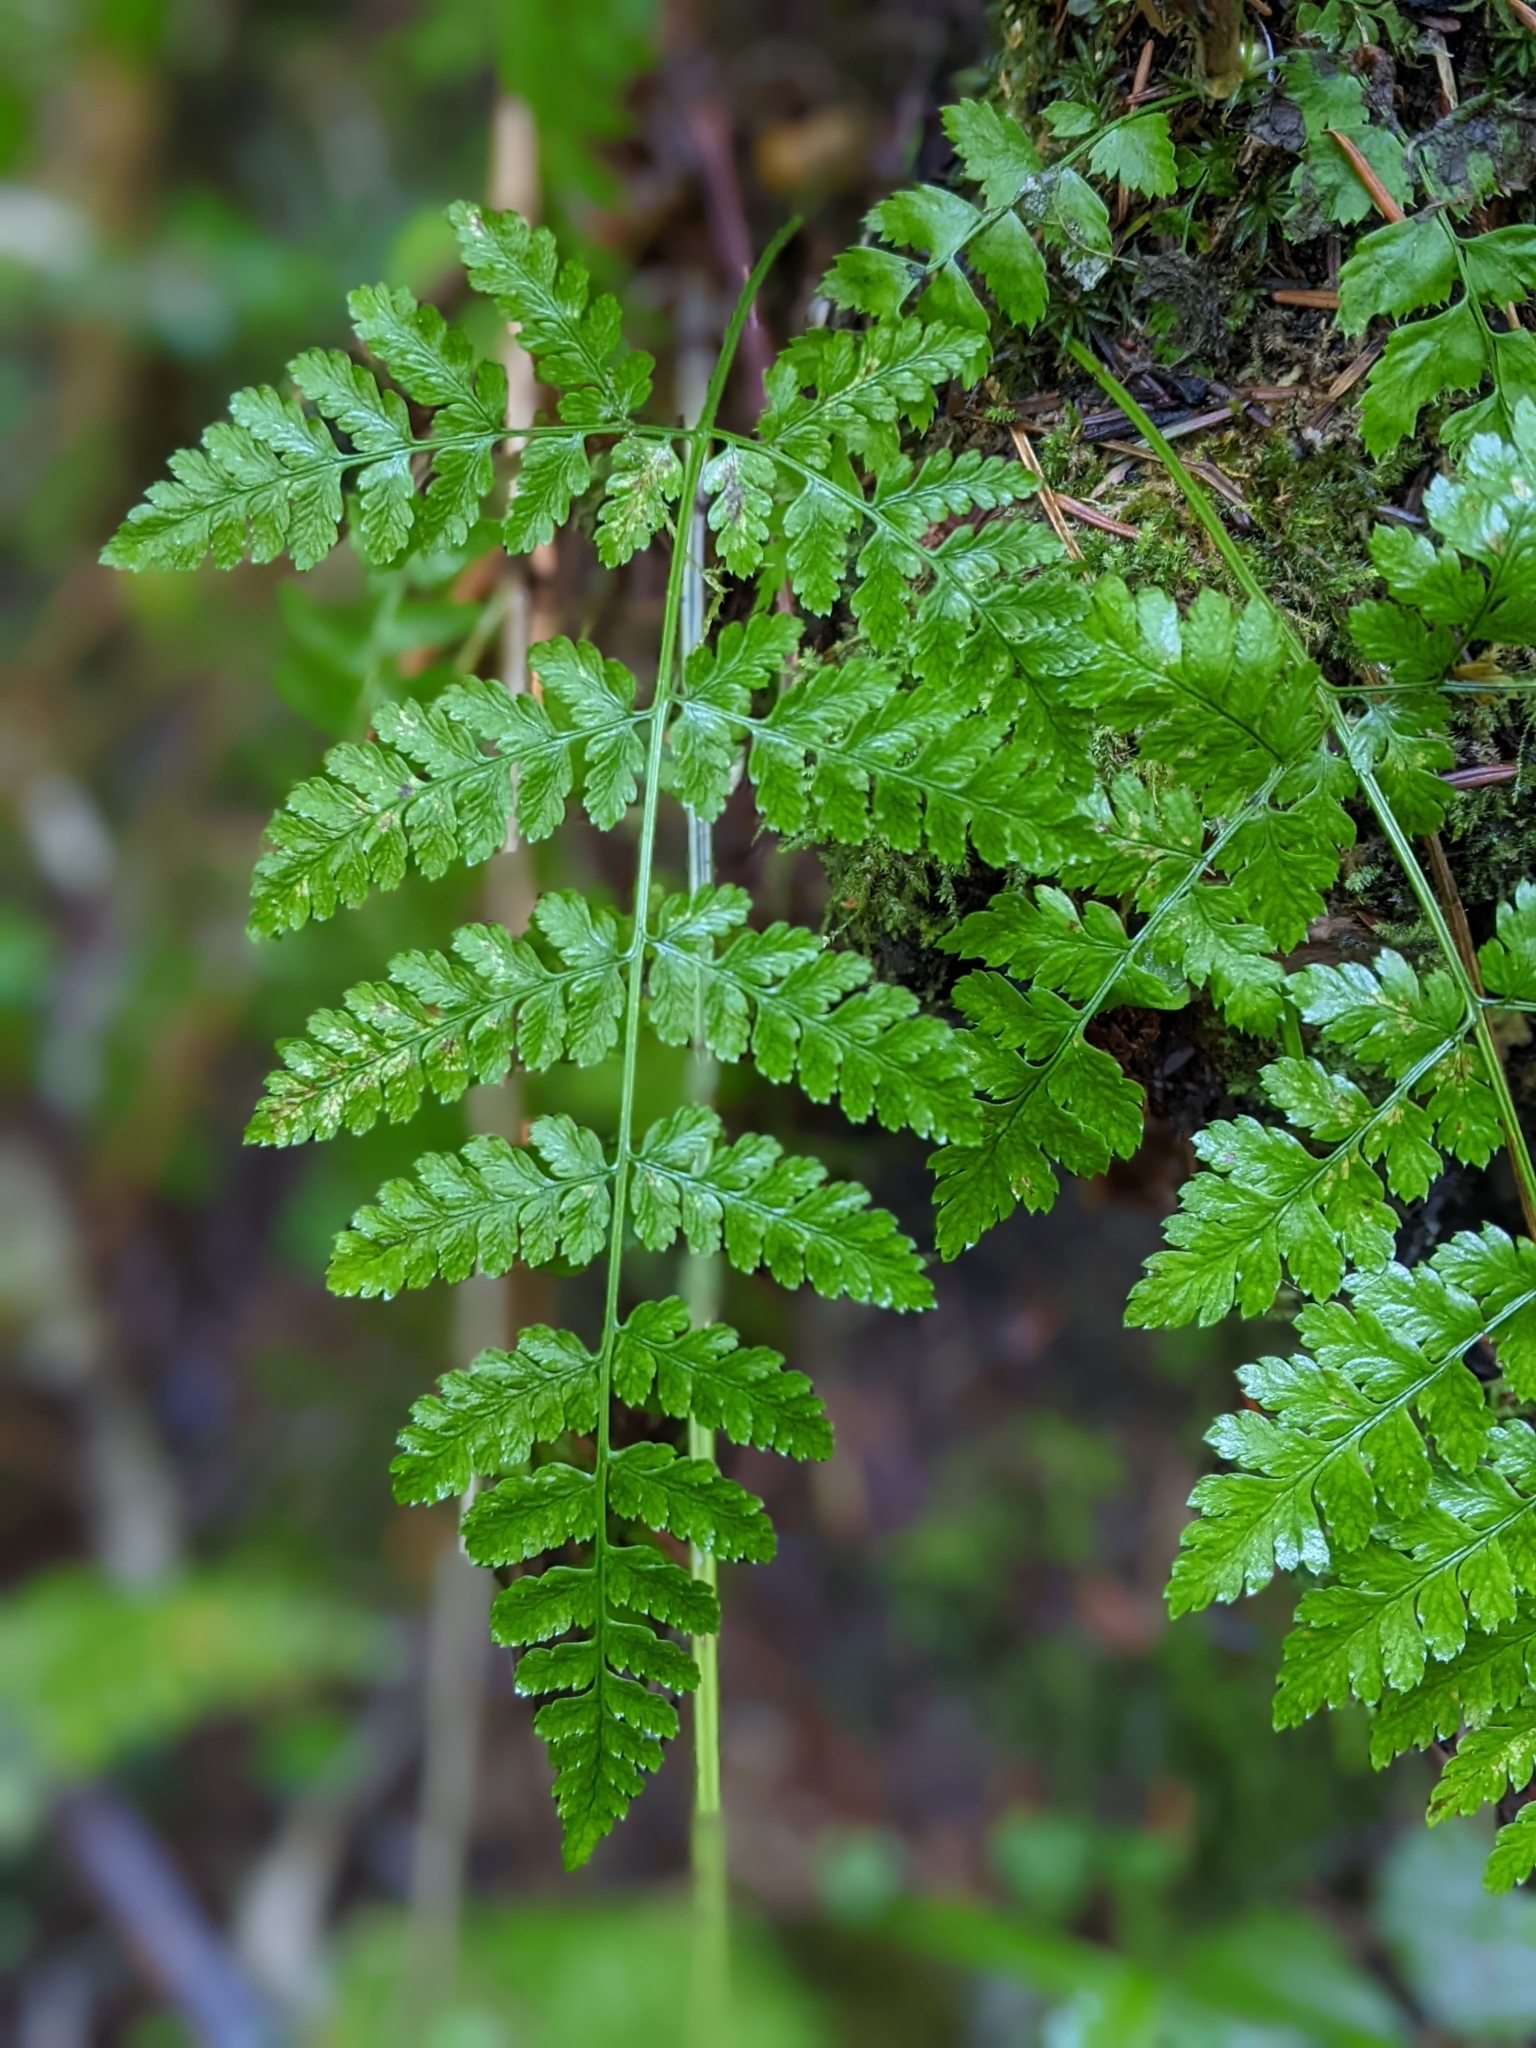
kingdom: Plantae
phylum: Tracheophyta
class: Polypodiopsida
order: Polypodiales
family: Dryopteridaceae
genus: Dryopteris
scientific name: Dryopteris expansa
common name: Northern buckler fern
